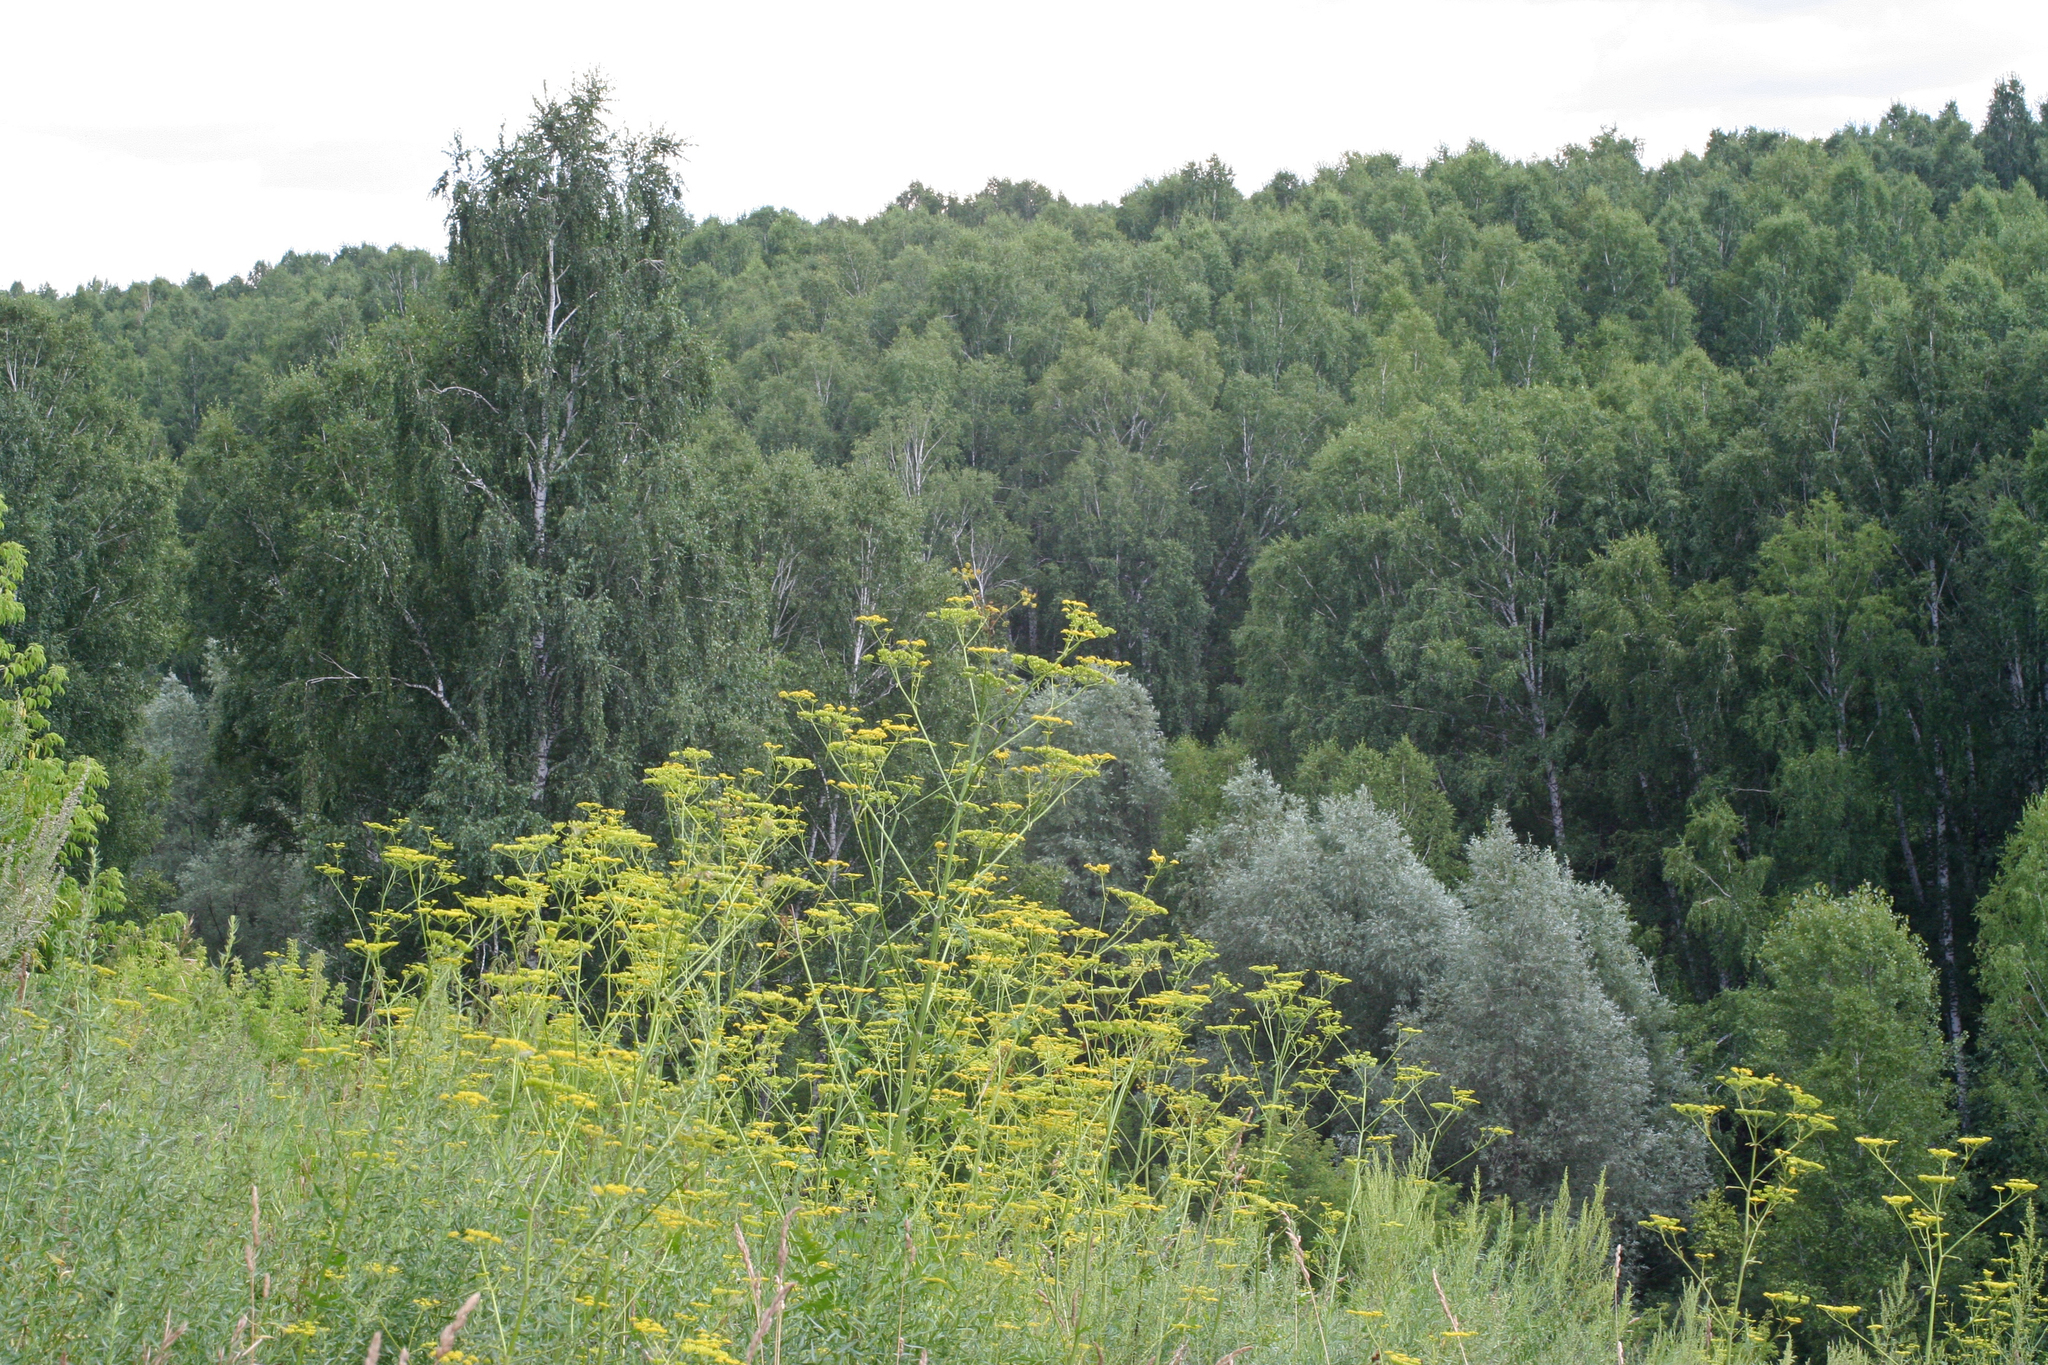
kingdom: Plantae
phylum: Tracheophyta
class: Magnoliopsida
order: Apiales
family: Apiaceae
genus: Pastinaca
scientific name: Pastinaca sativa
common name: Wild parsnip
